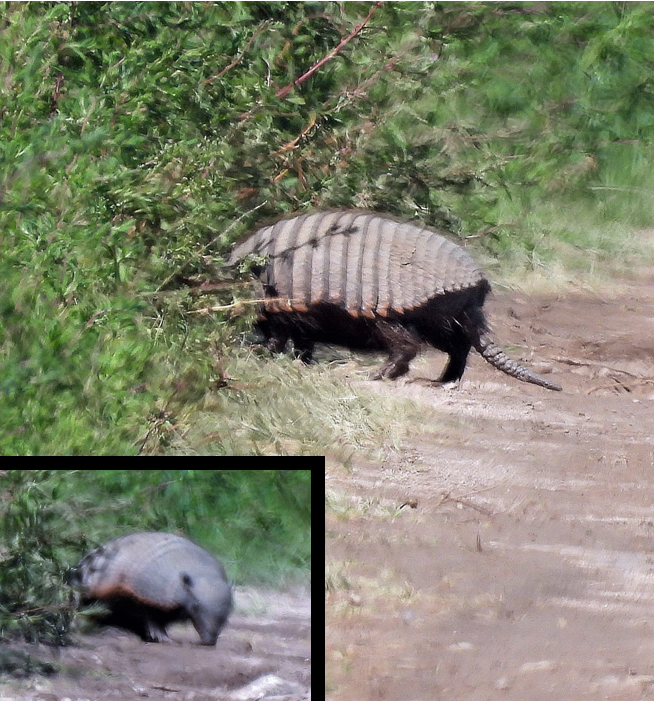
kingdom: Animalia
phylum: Chordata
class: Mammalia
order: Cingulata
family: Dasypodidae
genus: Chaetophractus
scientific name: Chaetophractus villosus
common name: Big hairy armadillo
